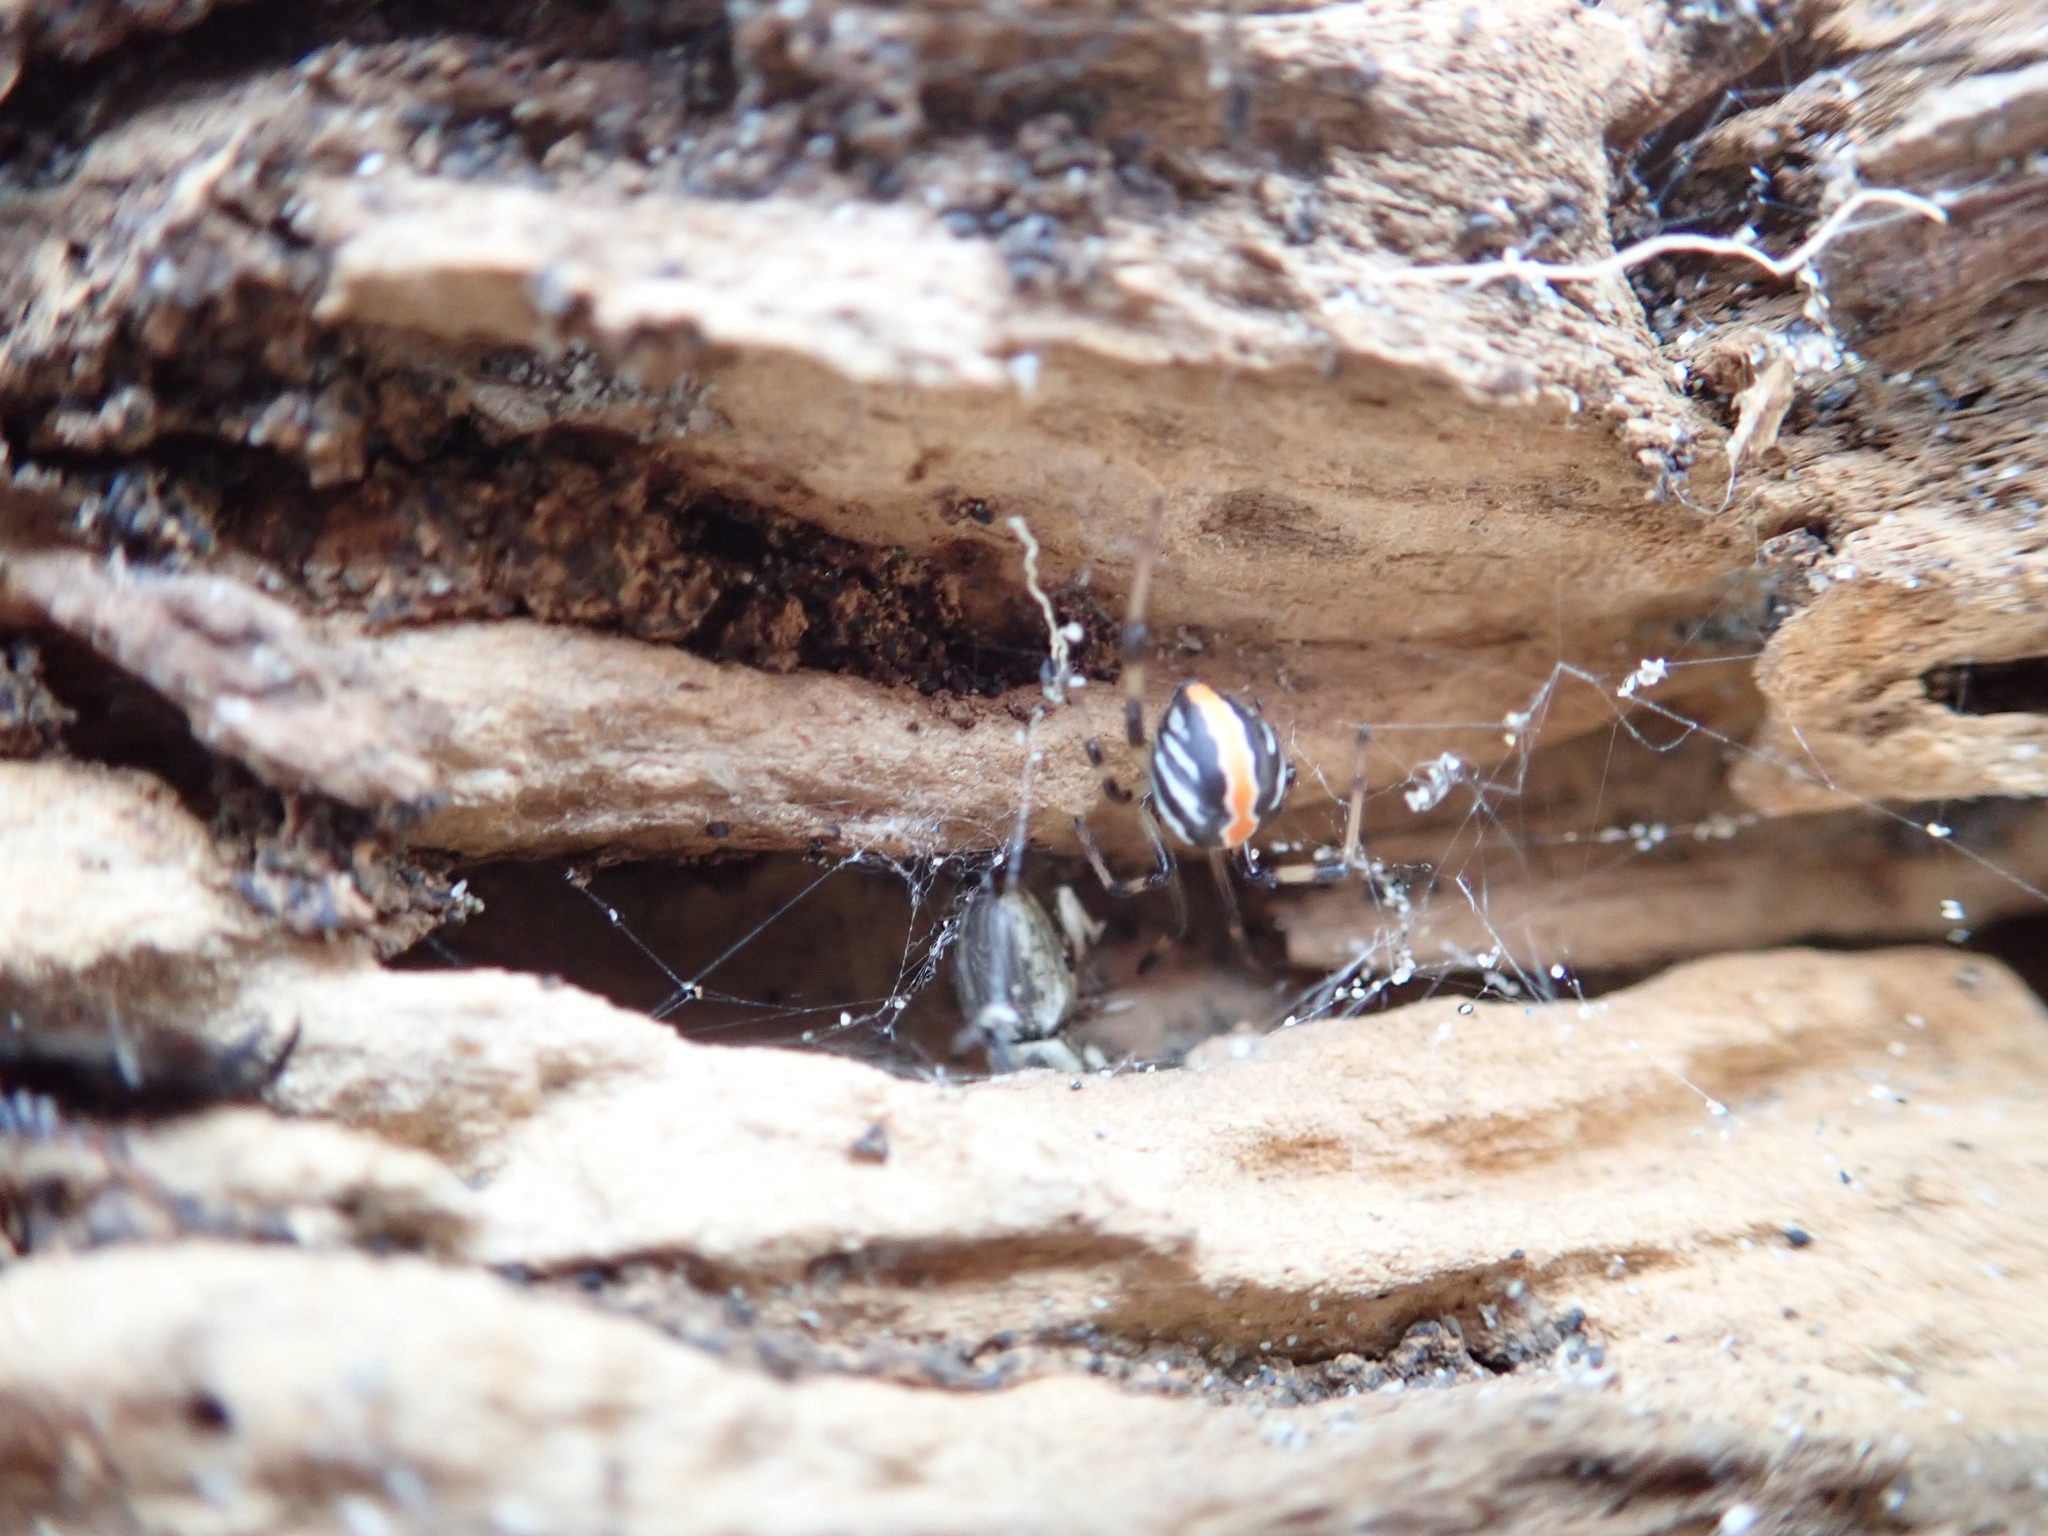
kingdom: Animalia
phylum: Arthropoda
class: Arachnida
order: Araneae
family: Theridiidae
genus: Latrodectus
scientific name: Latrodectus katipo
